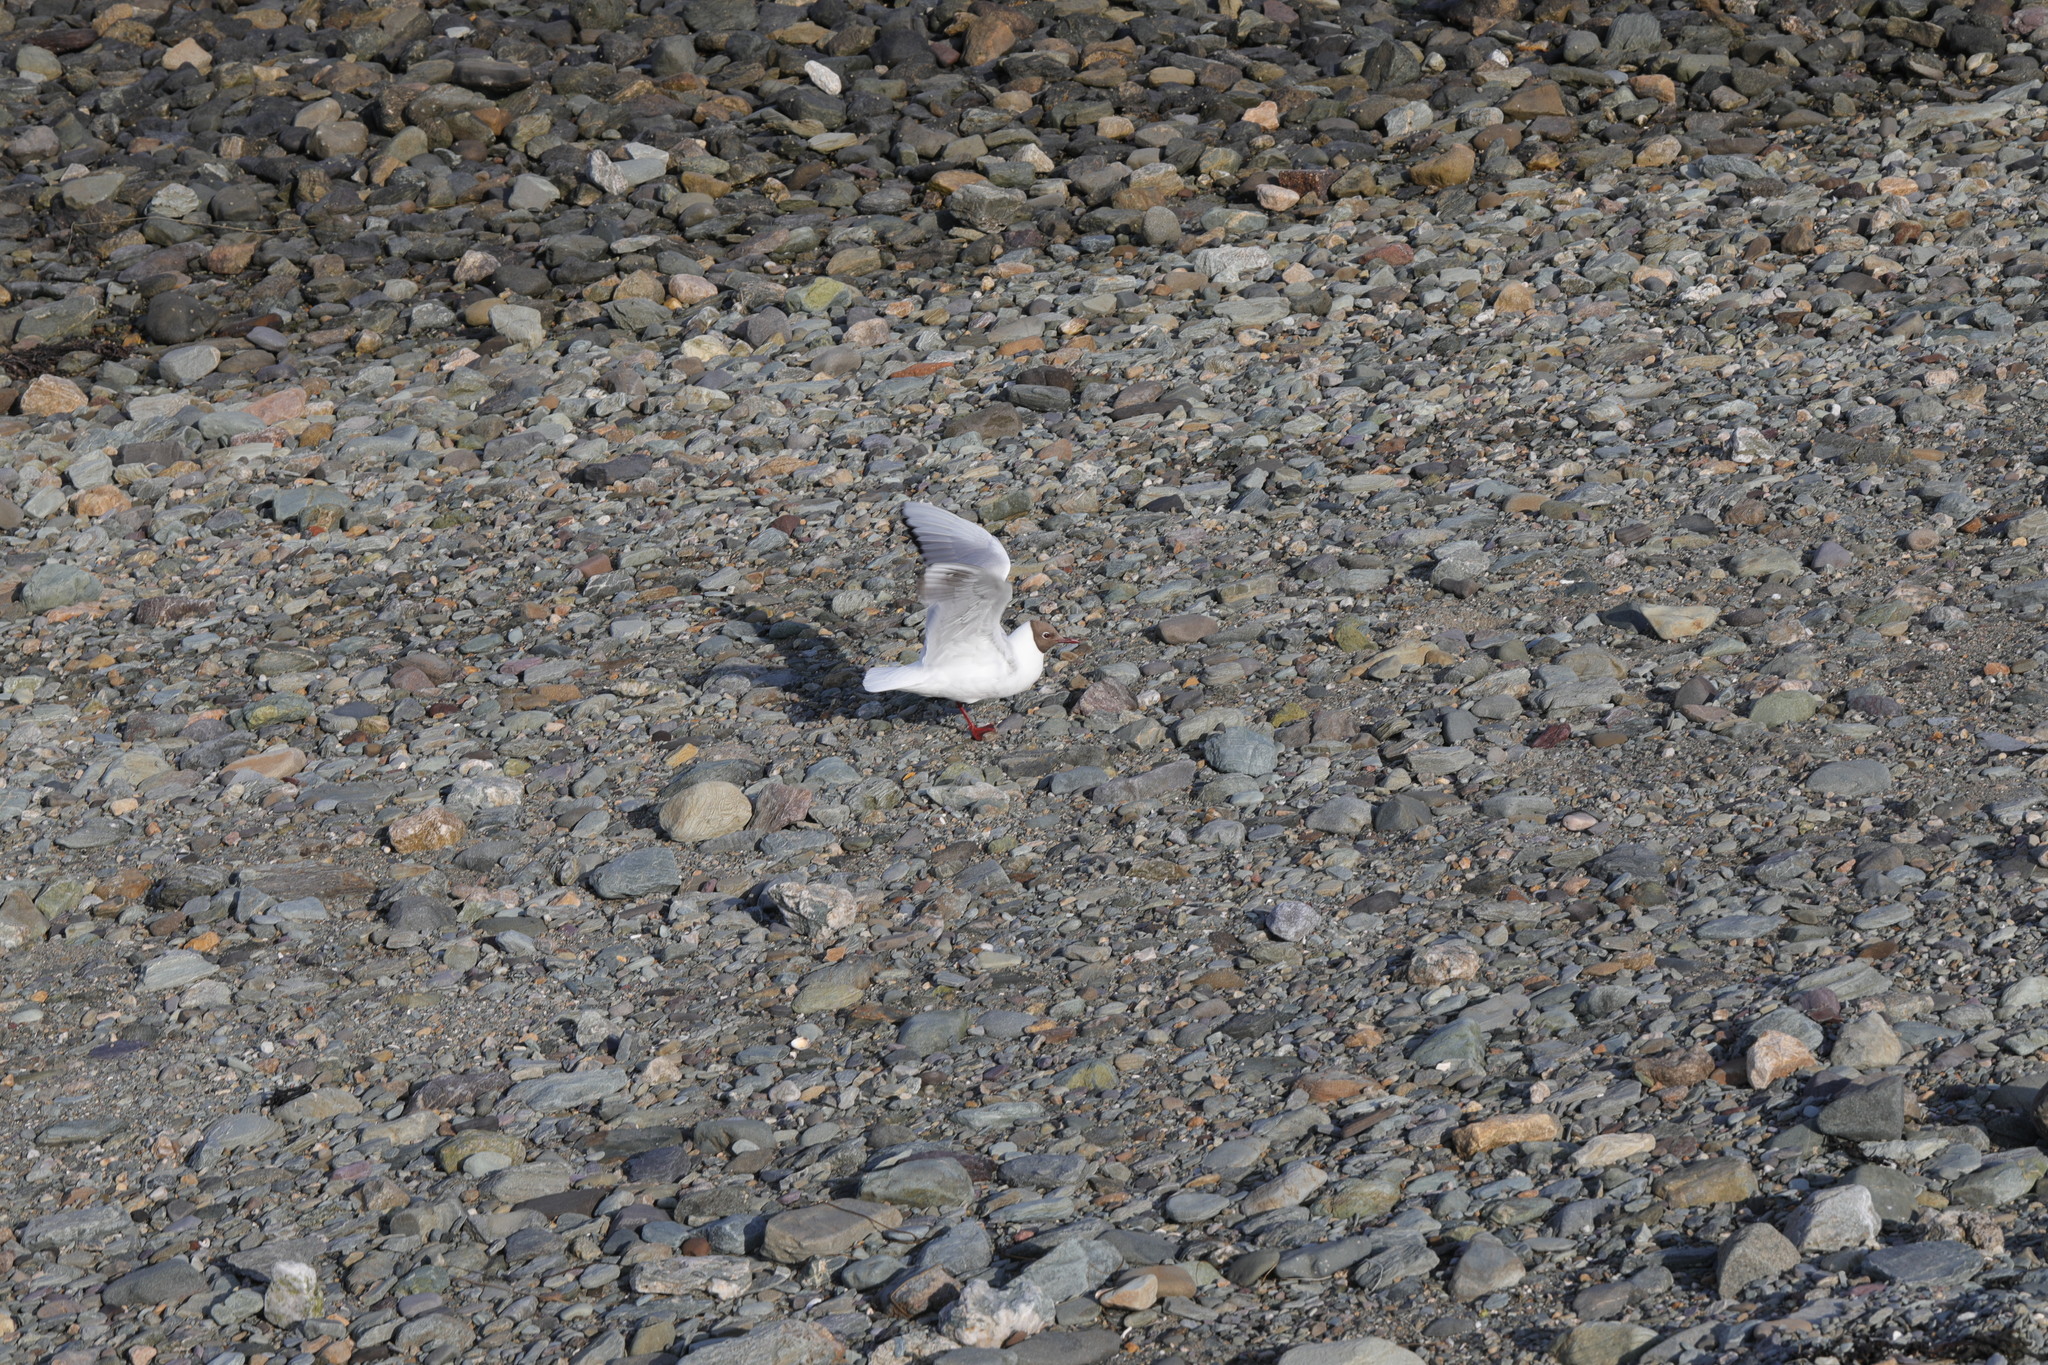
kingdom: Animalia
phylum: Chordata
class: Aves
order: Charadriiformes
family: Laridae
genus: Chroicocephalus
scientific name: Chroicocephalus ridibundus
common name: Black-headed gull
